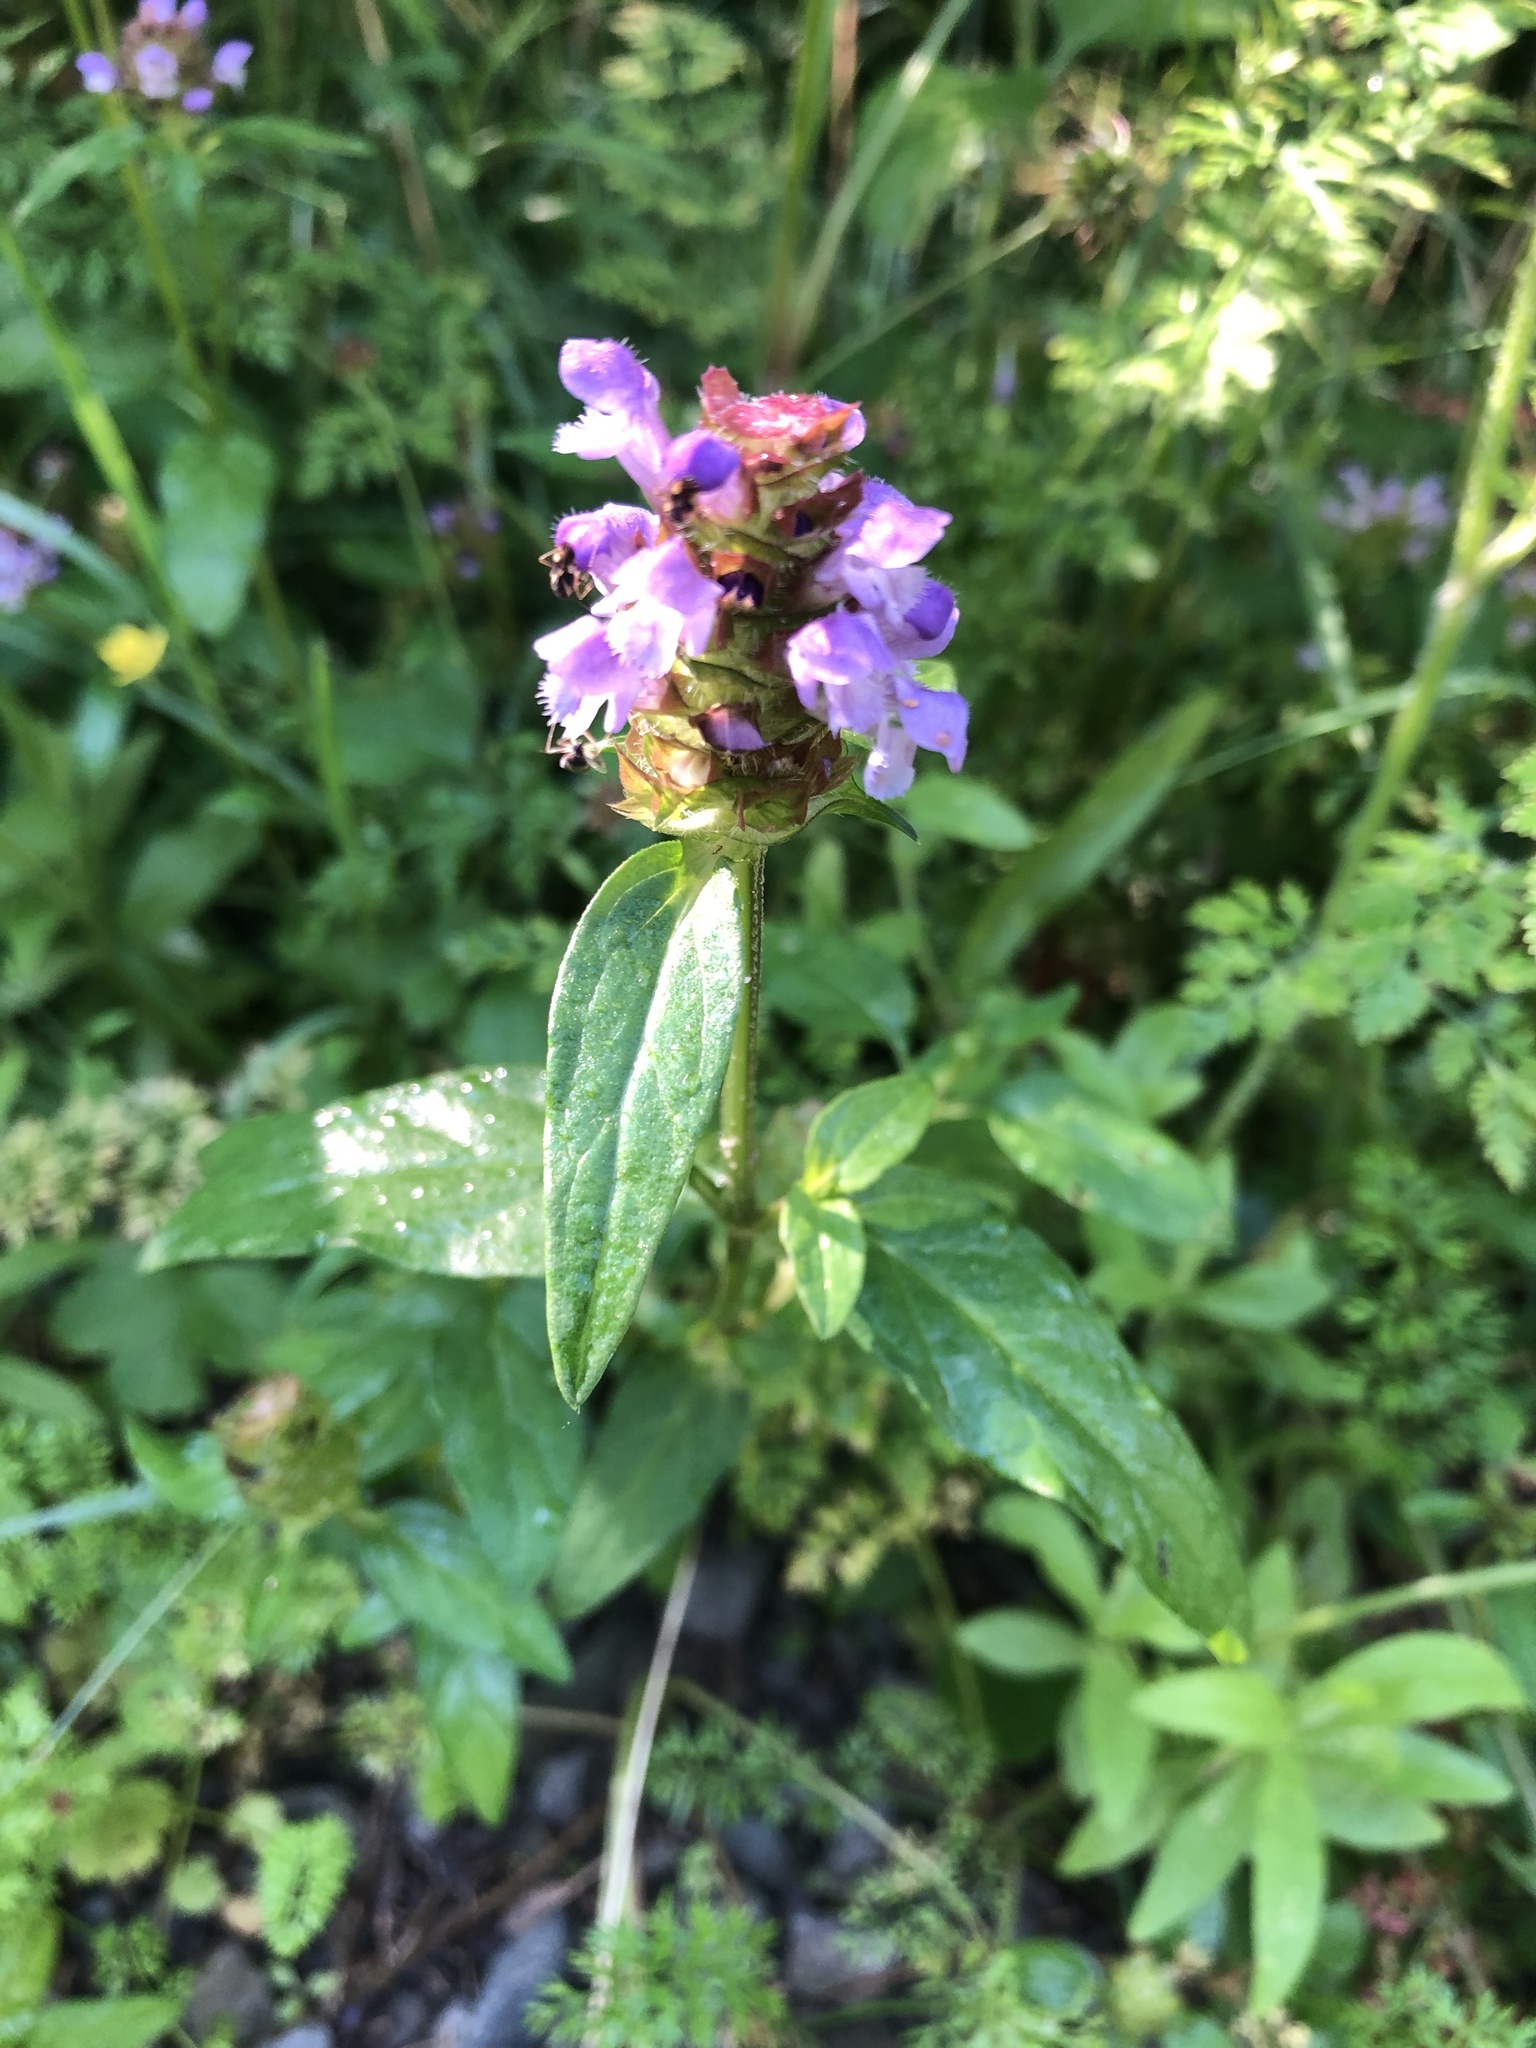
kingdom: Plantae
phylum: Tracheophyta
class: Magnoliopsida
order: Lamiales
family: Lamiaceae
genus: Prunella
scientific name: Prunella vulgaris
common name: Heal-all
